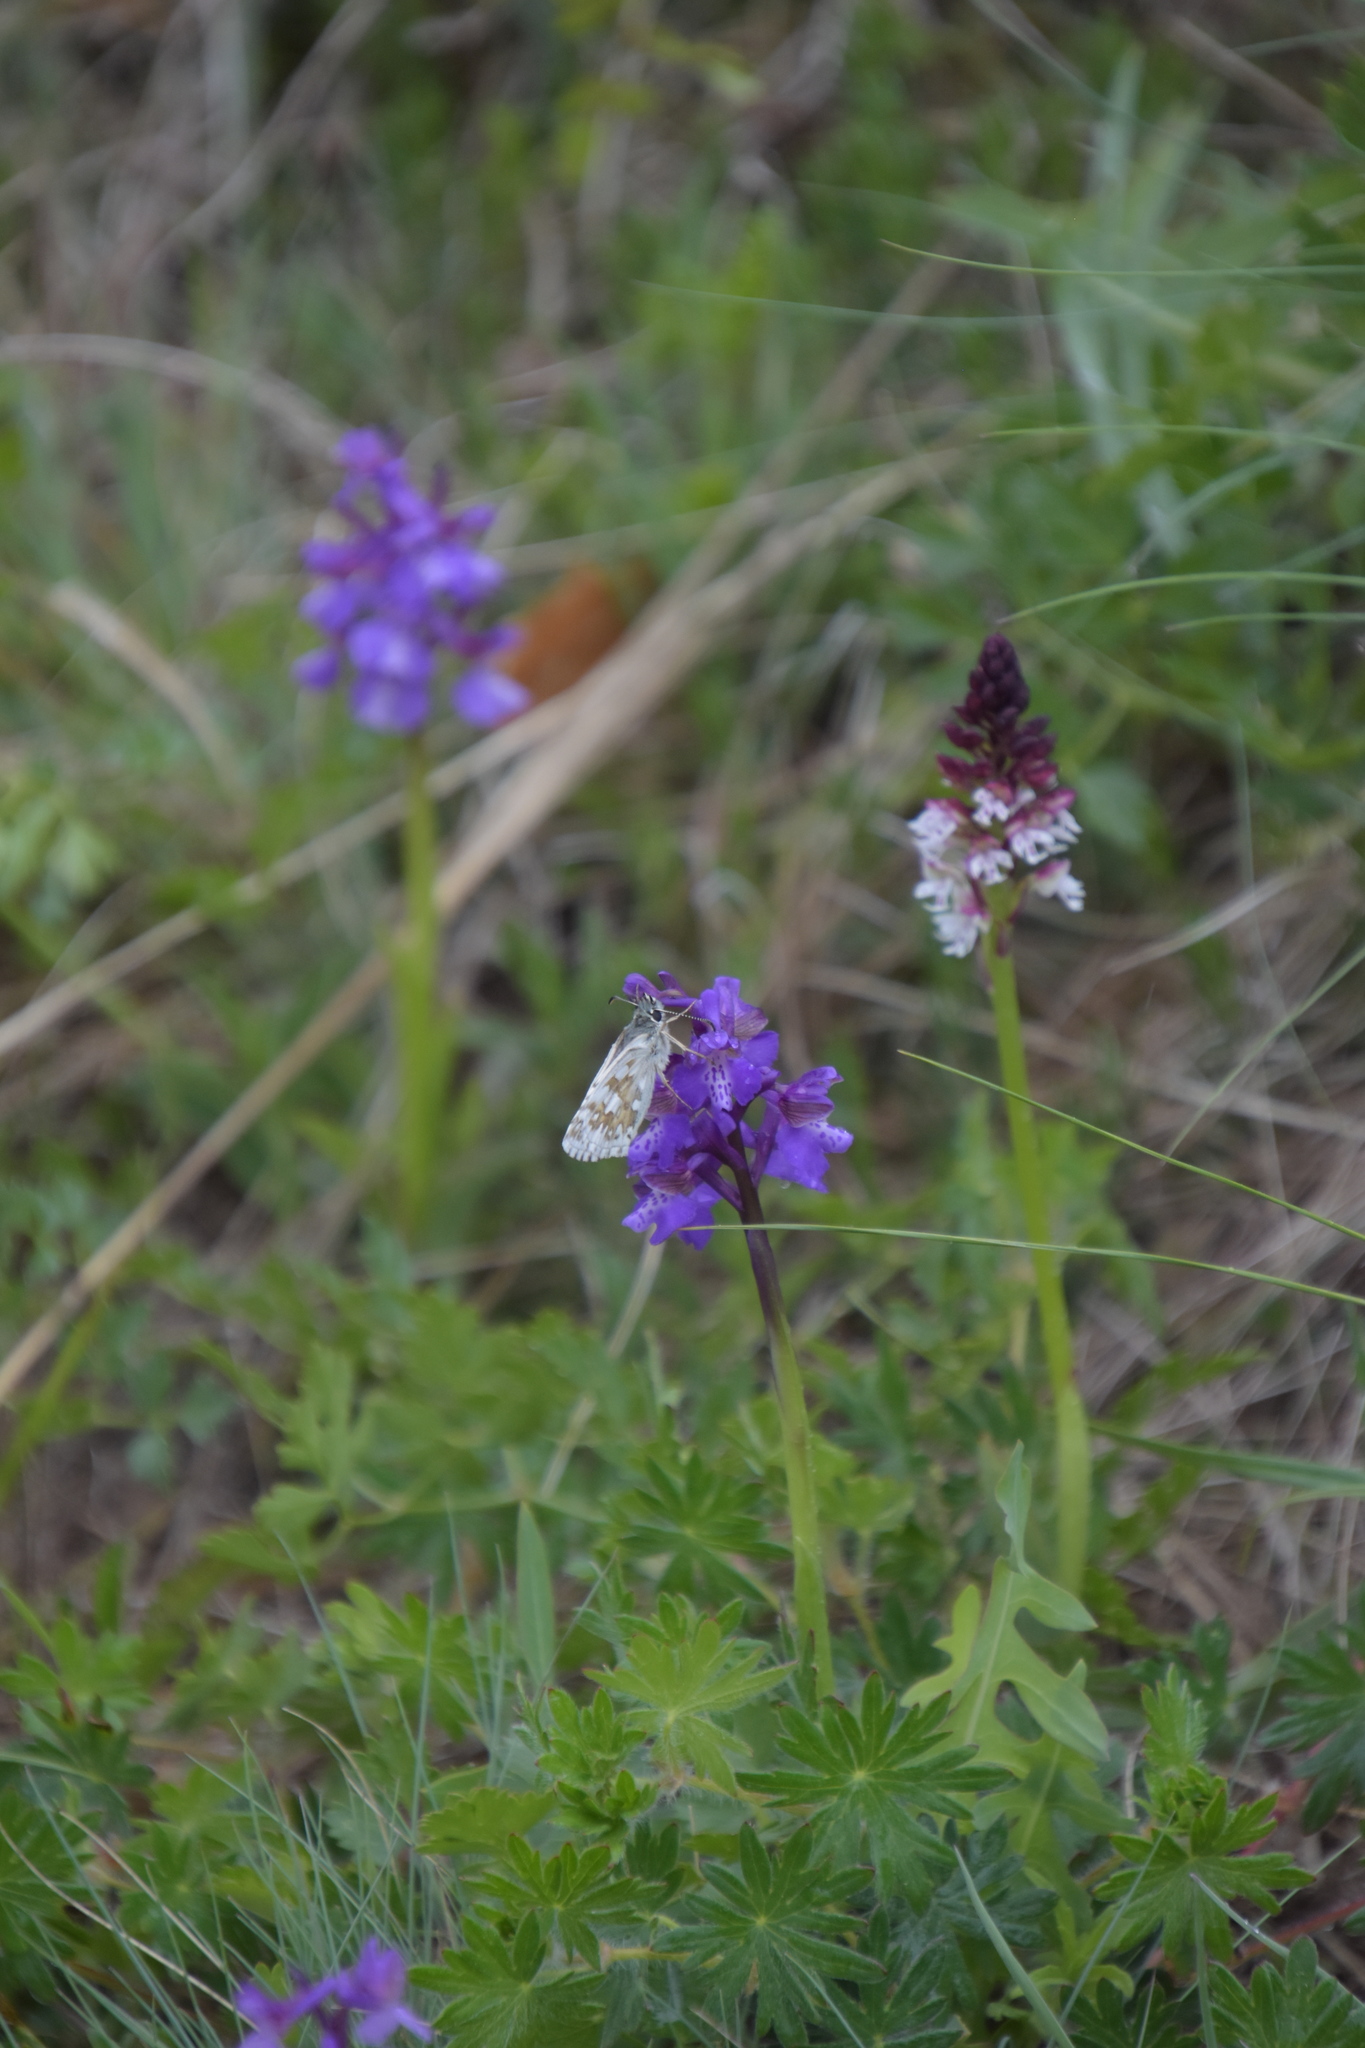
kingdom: Plantae
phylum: Tracheophyta
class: Liliopsida
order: Asparagales
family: Orchidaceae
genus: Anacamptis
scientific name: Anacamptis morio
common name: Green-winged orchid
